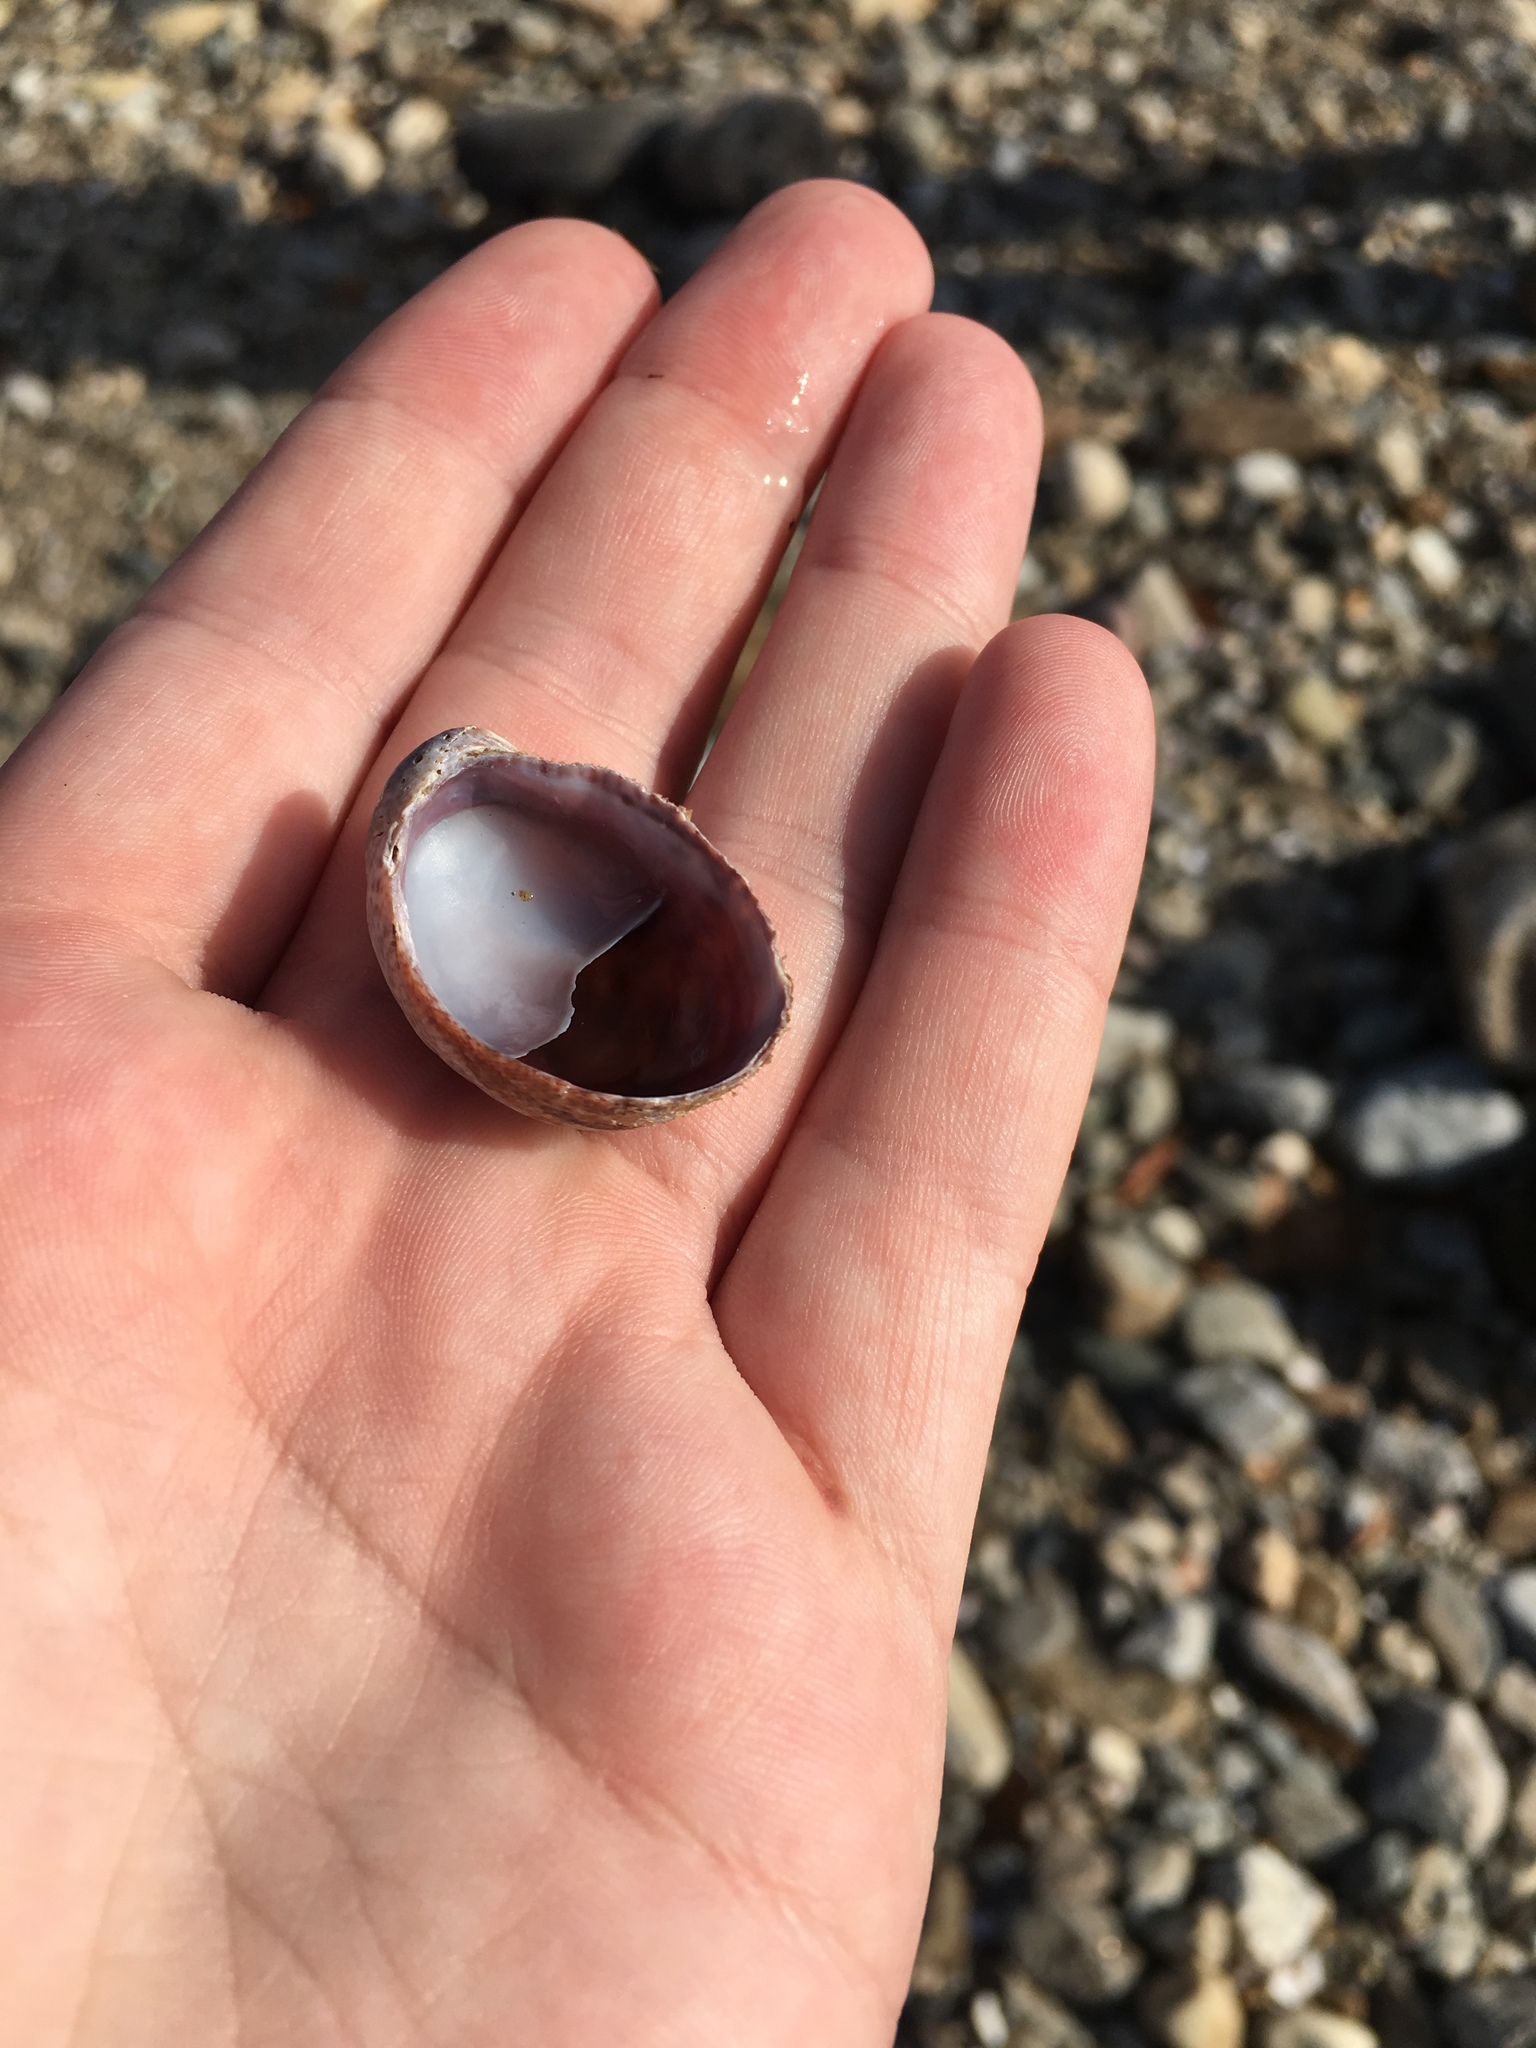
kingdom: Animalia
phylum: Mollusca
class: Gastropoda
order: Littorinimorpha
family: Calyptraeidae
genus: Crepidula
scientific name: Crepidula fornicata
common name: Slipper limpet
